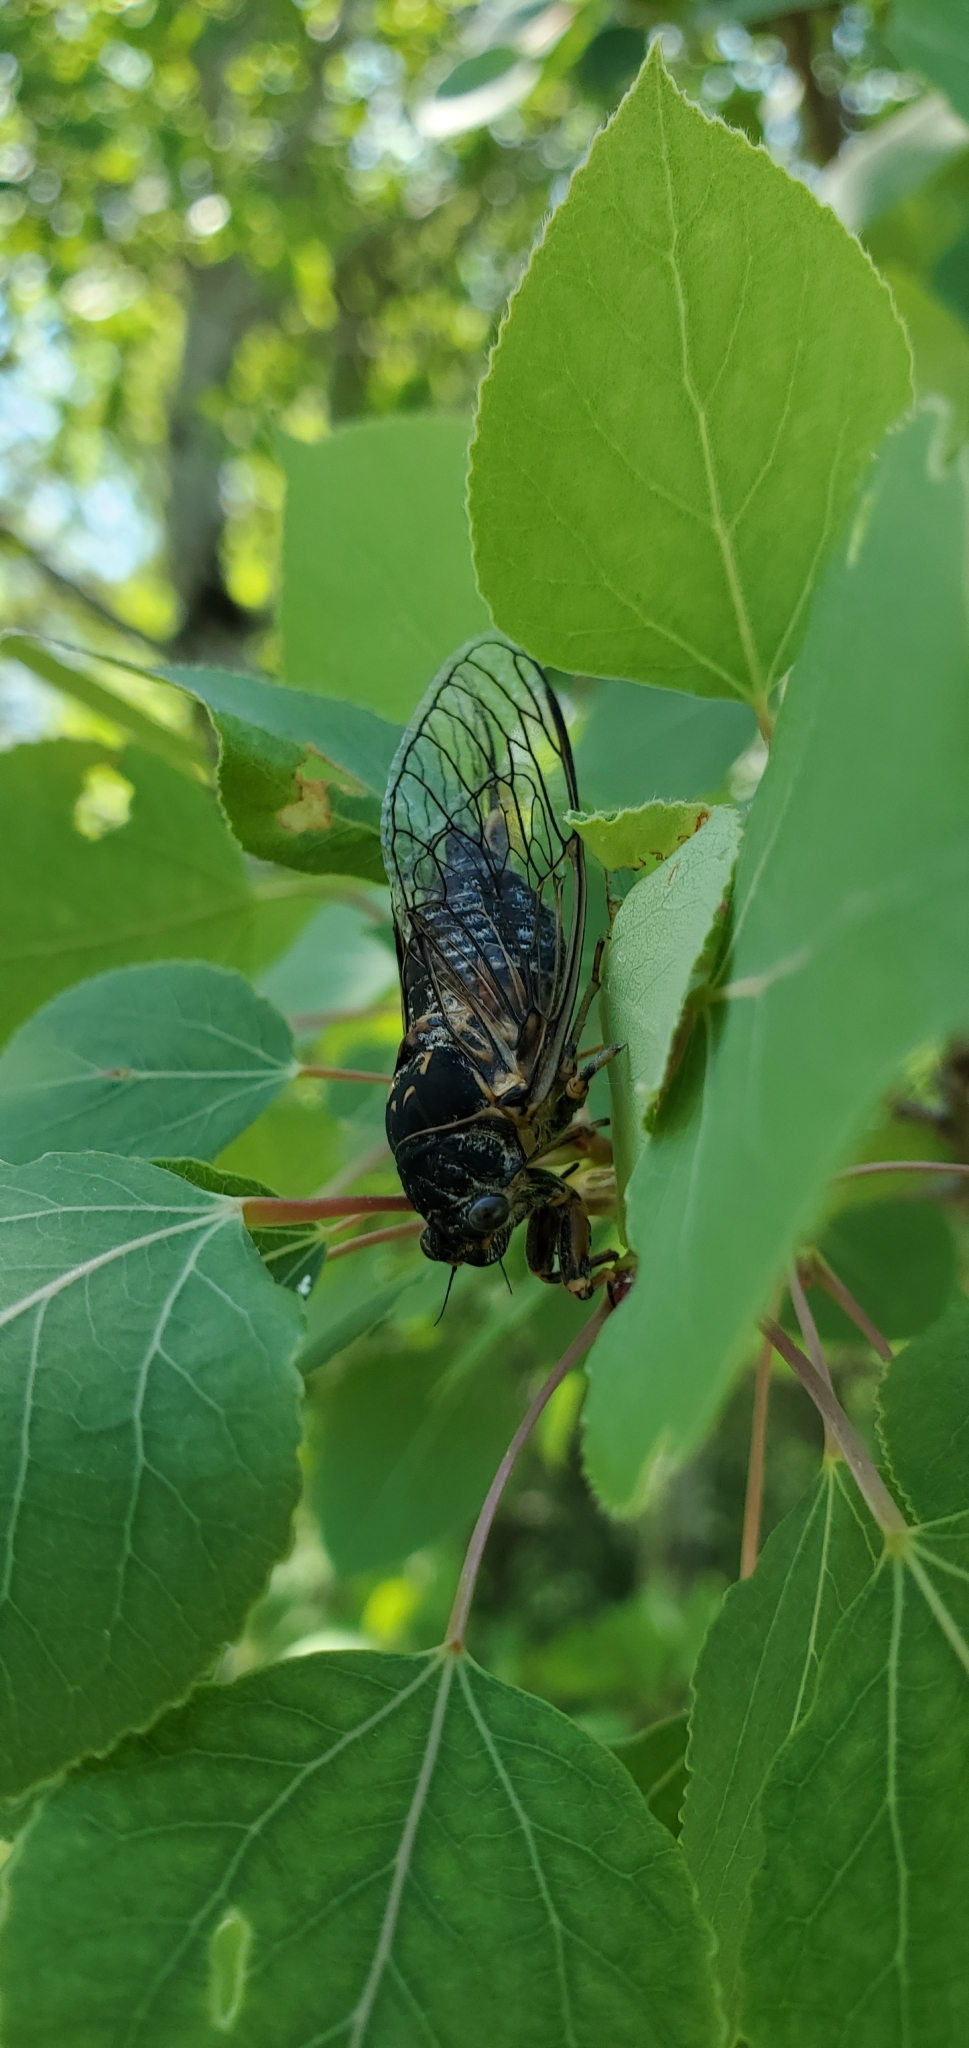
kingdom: Animalia
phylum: Arthropoda
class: Insecta
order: Hemiptera
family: Cicadidae
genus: Okanagana
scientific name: Okanagana canadensis
